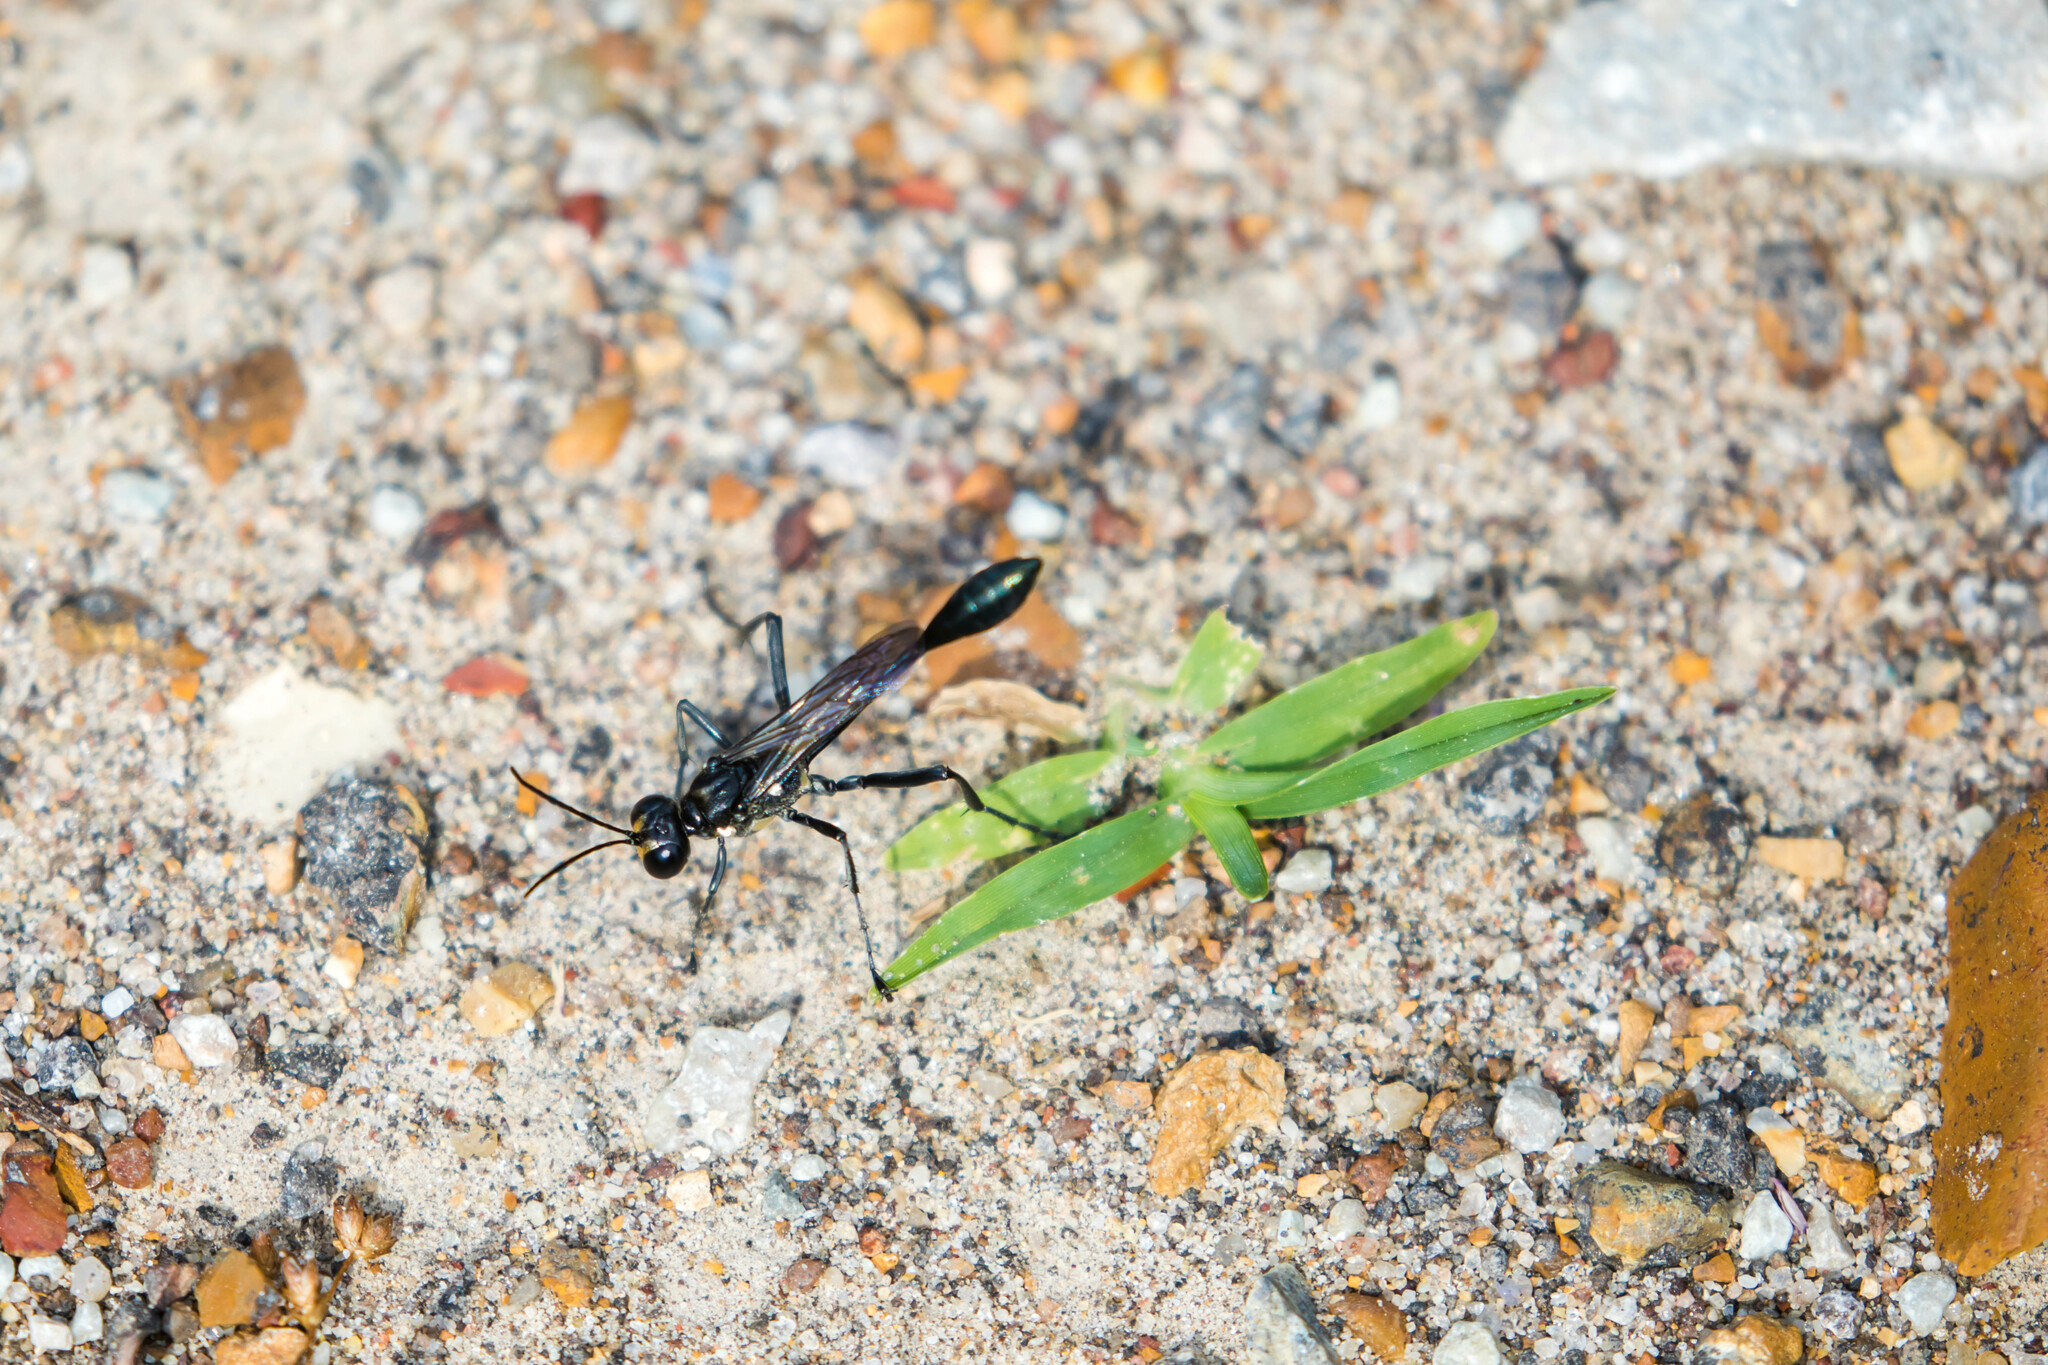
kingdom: Animalia
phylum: Arthropoda
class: Insecta
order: Hymenoptera
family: Sphecidae
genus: Eremnophila
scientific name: Eremnophila aureonotata
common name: Gold-marked thread-waisted wasp
